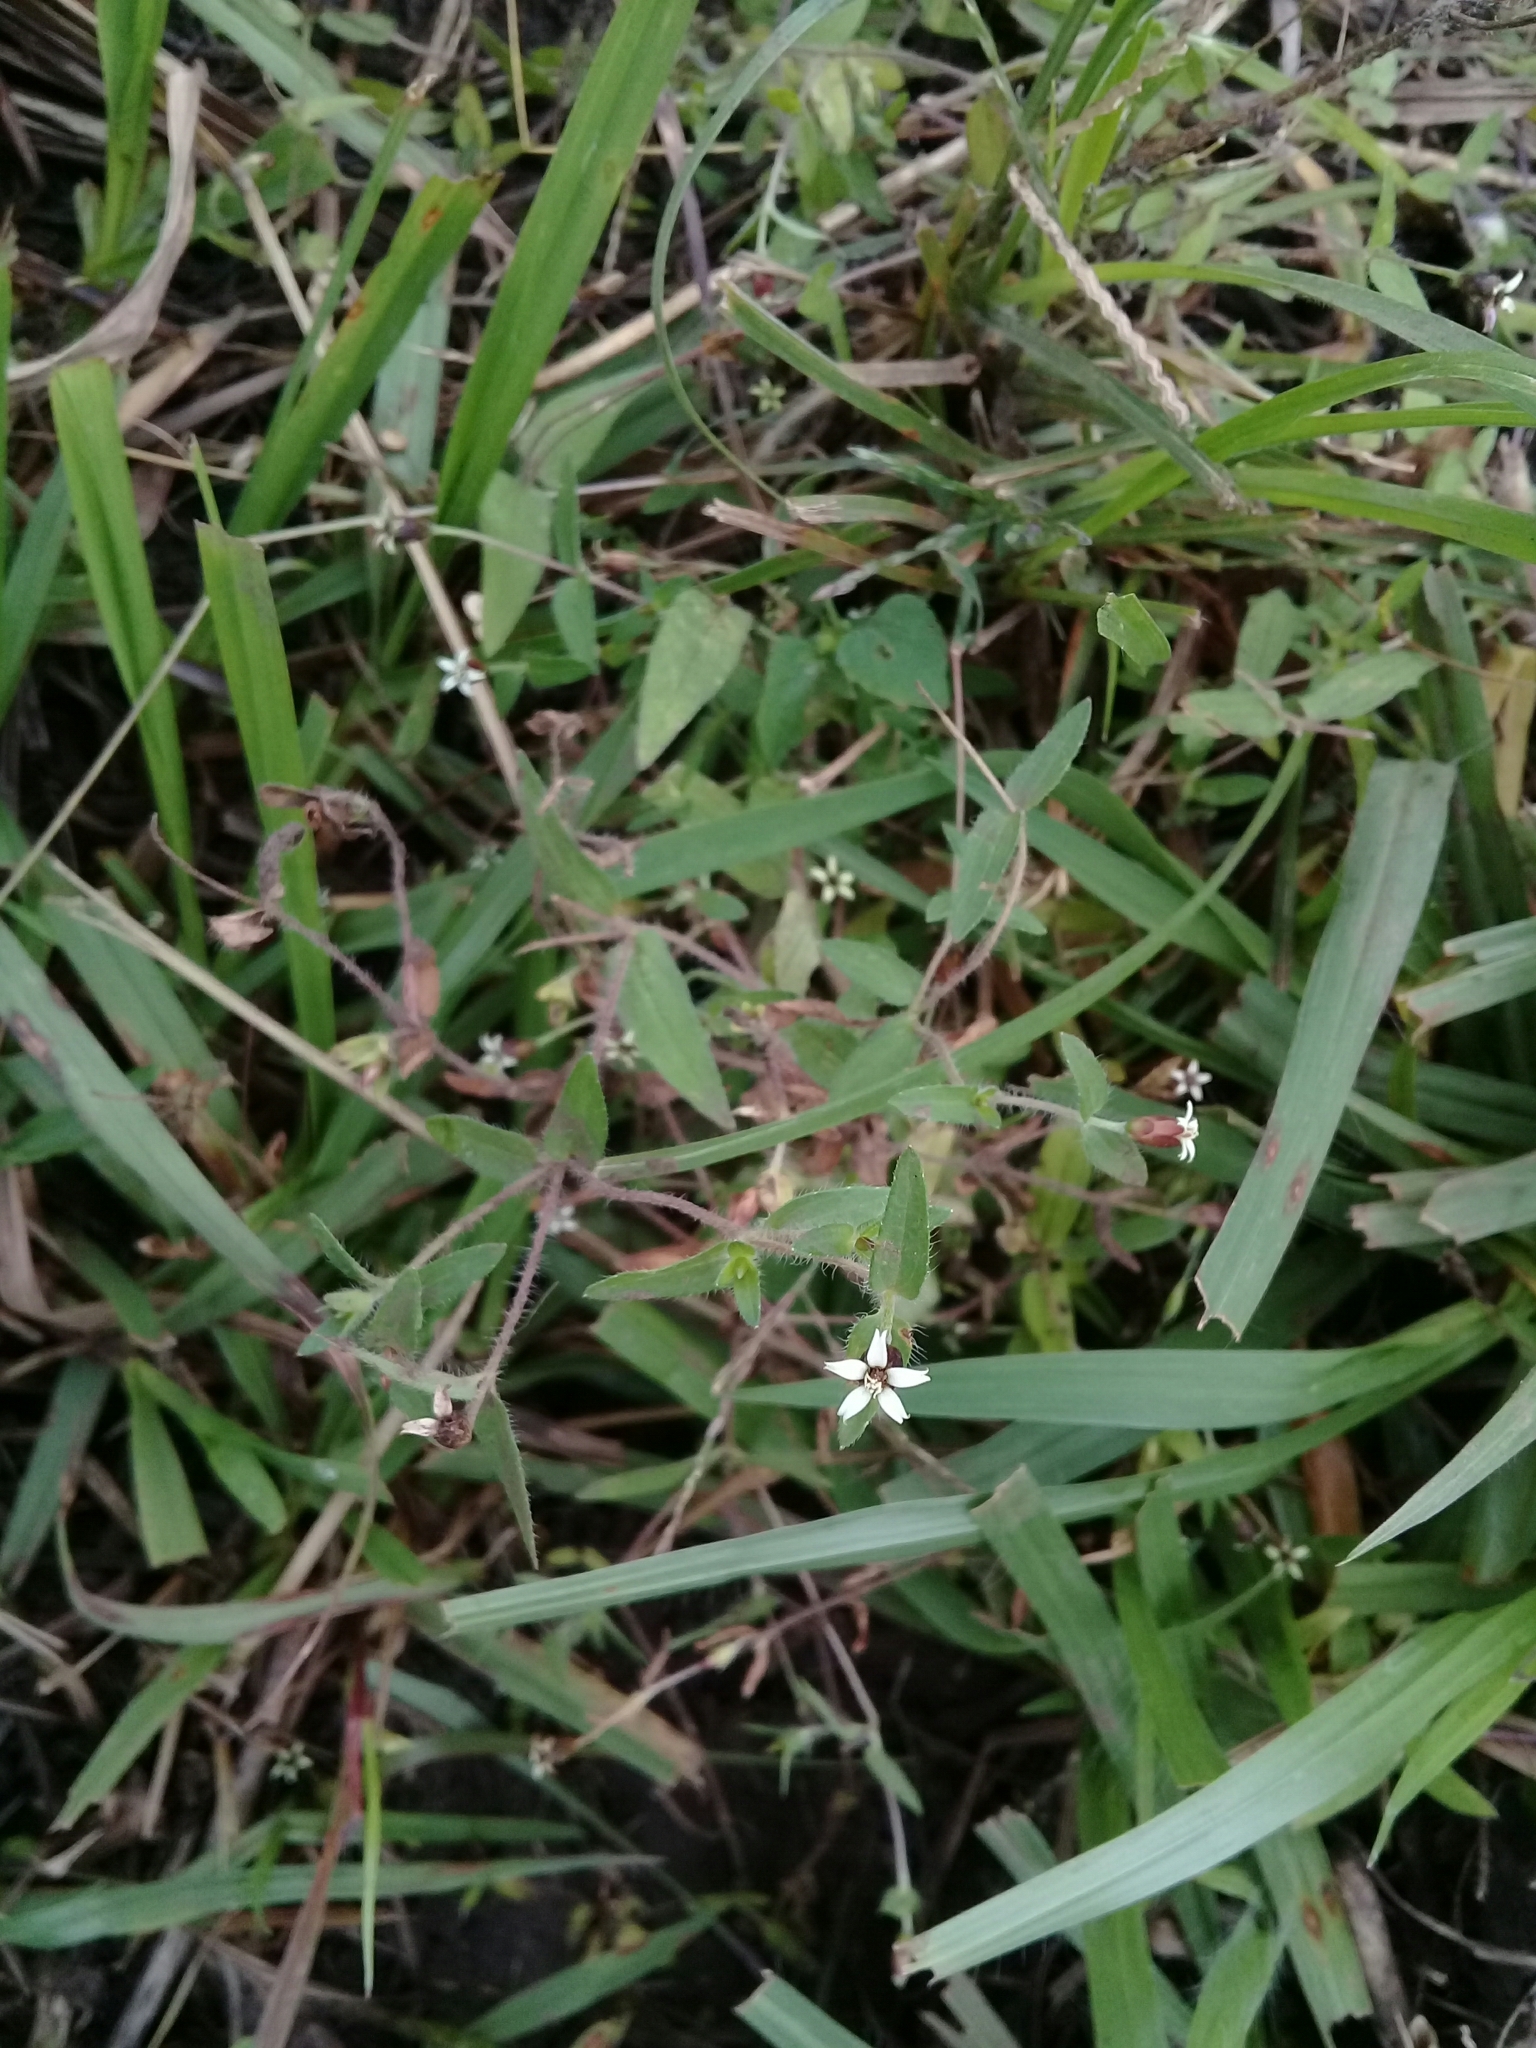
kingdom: Plantae
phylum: Tracheophyta
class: Magnoliopsida
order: Asterales
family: Asteraceae
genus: Zinnia
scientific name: Zinnia zinnioides
